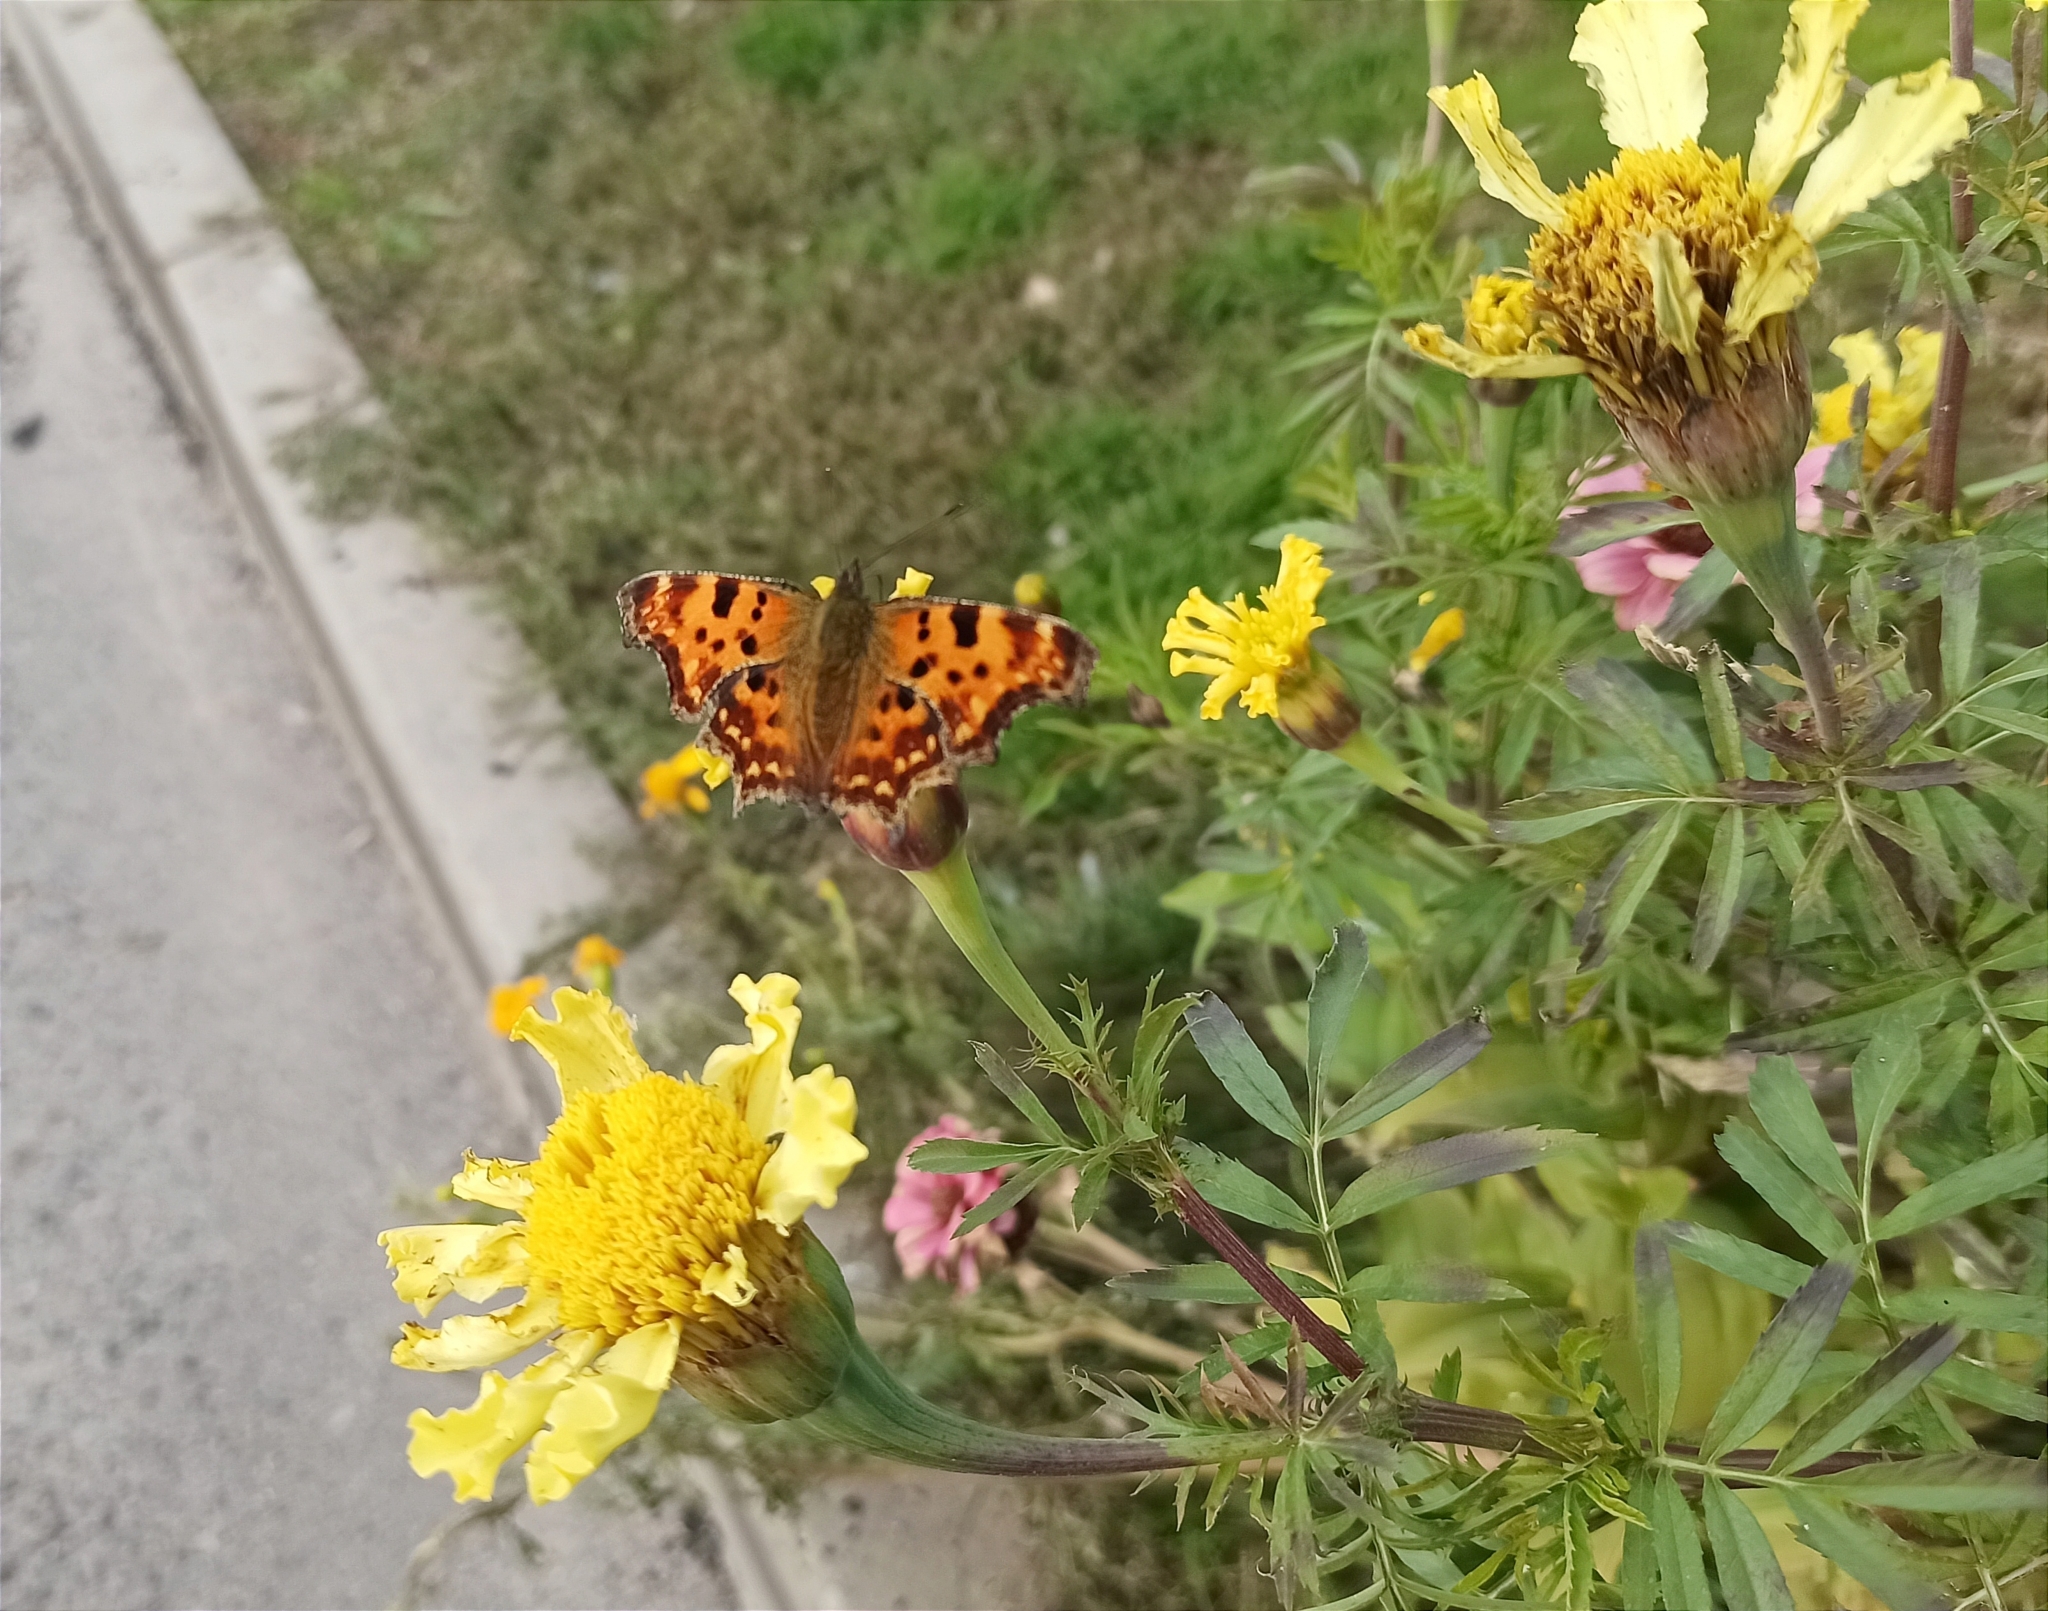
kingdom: Animalia
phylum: Arthropoda
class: Insecta
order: Lepidoptera
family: Nymphalidae
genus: Polygonia
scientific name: Polygonia c-album
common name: Comma
